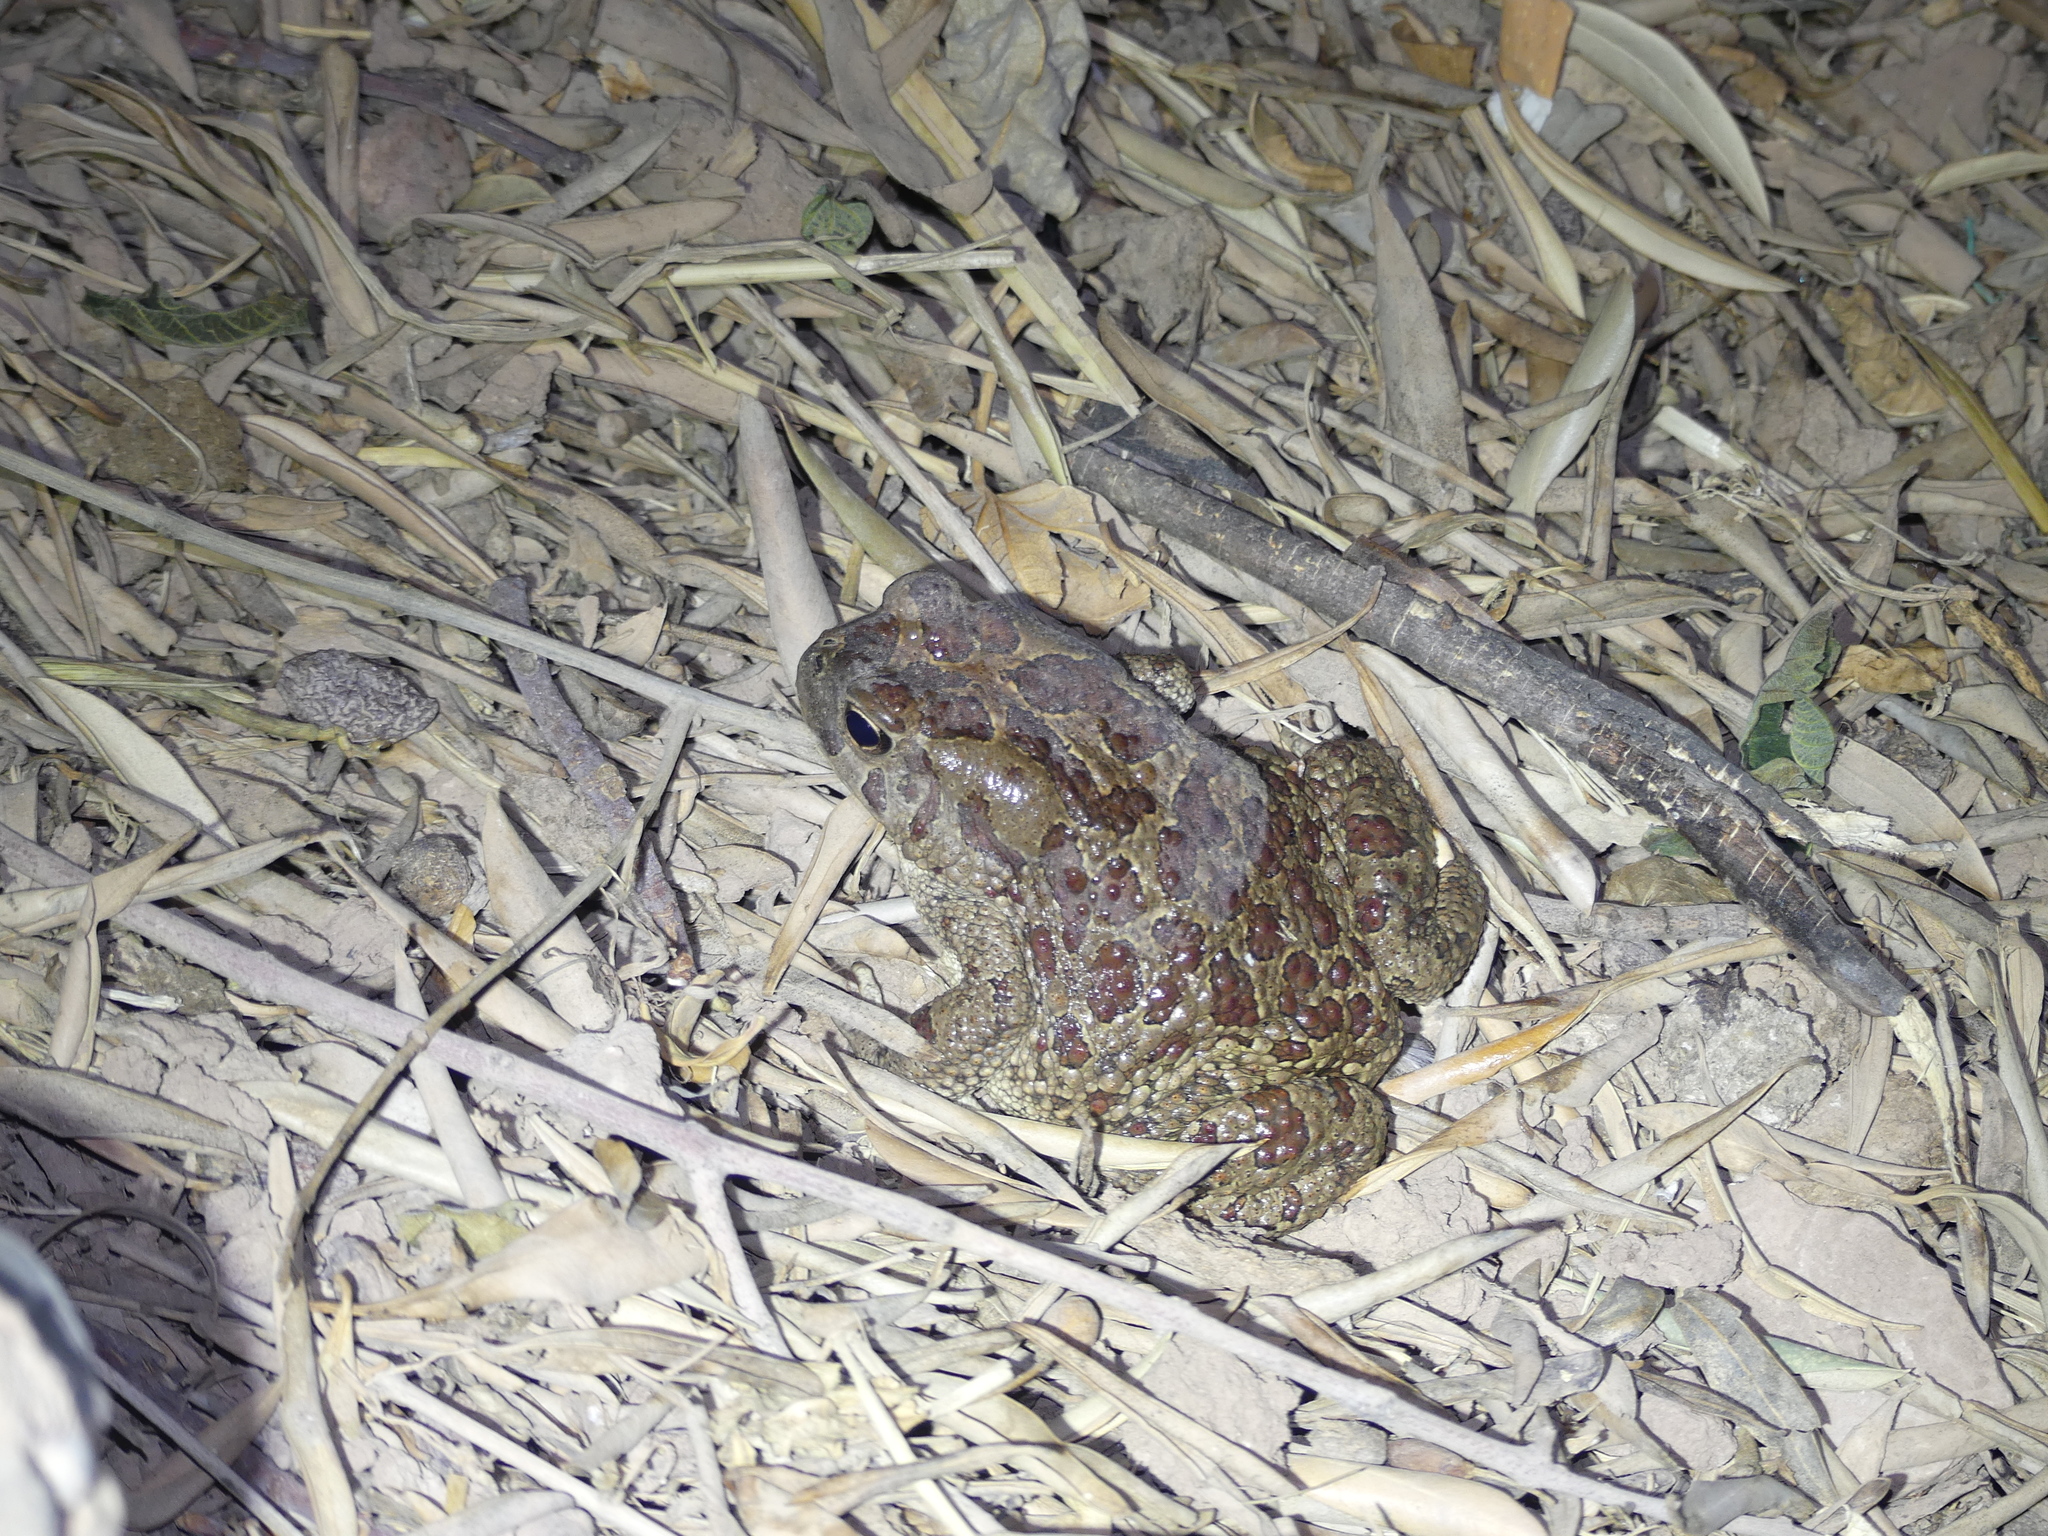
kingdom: Animalia
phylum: Chordata
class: Amphibia
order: Anura
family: Bufonidae
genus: Sclerophrys
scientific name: Sclerophrys mauritanica
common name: Berber toad
